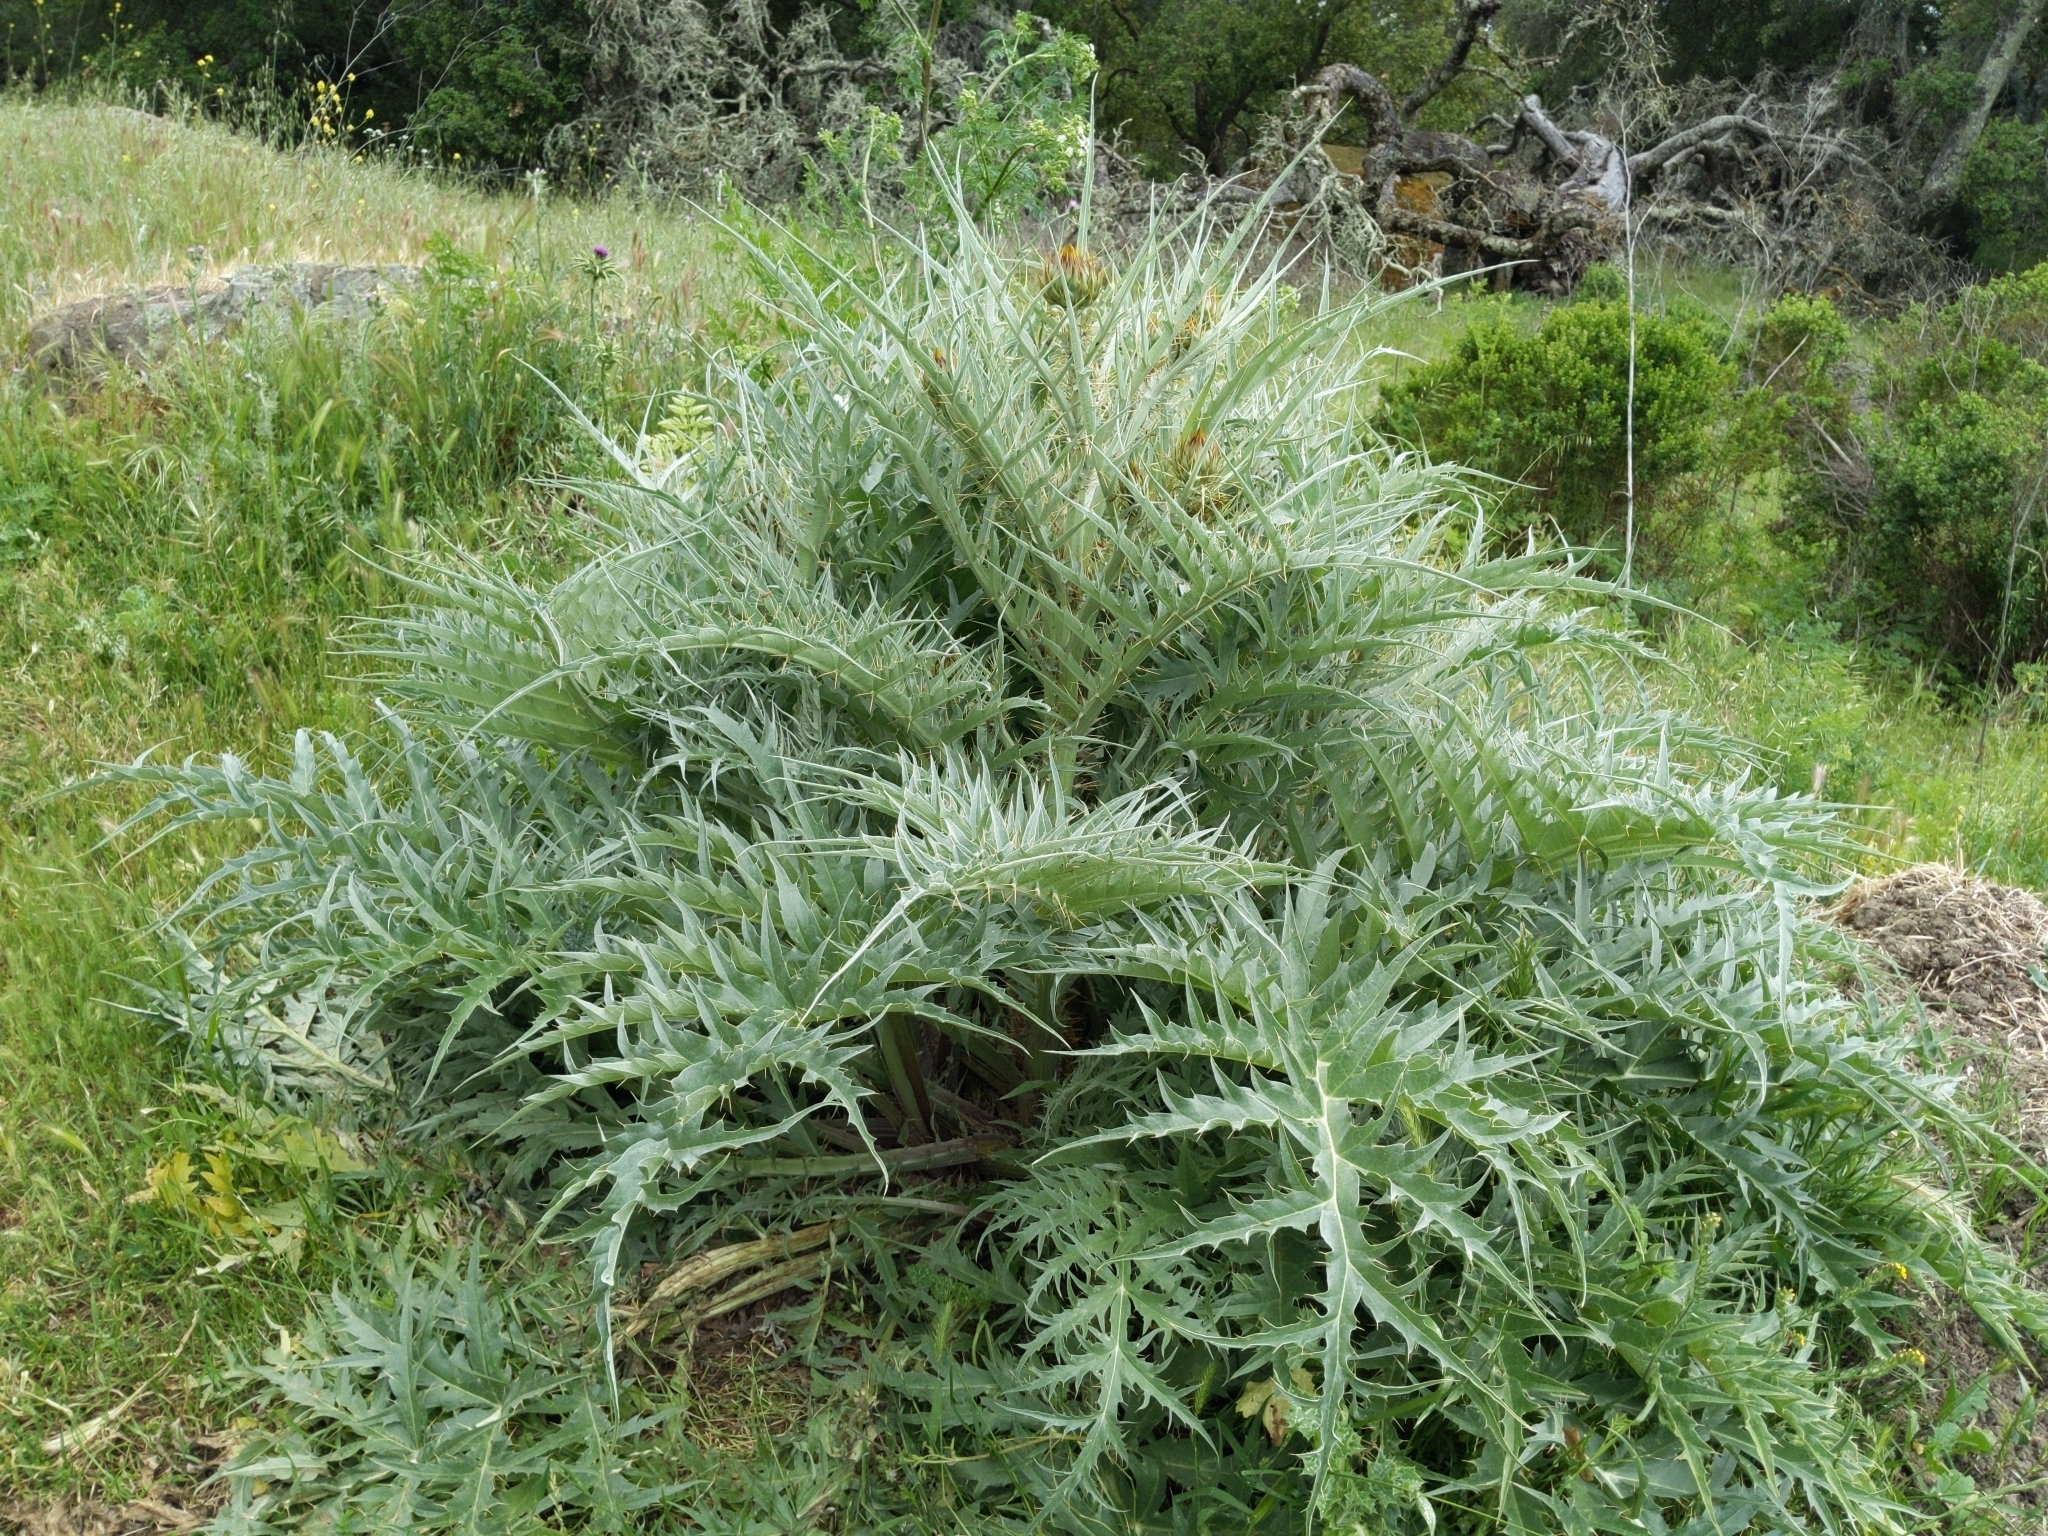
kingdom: Plantae
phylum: Tracheophyta
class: Magnoliopsida
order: Asterales
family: Asteraceae
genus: Cynara
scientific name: Cynara cardunculus
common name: Globe artichoke
